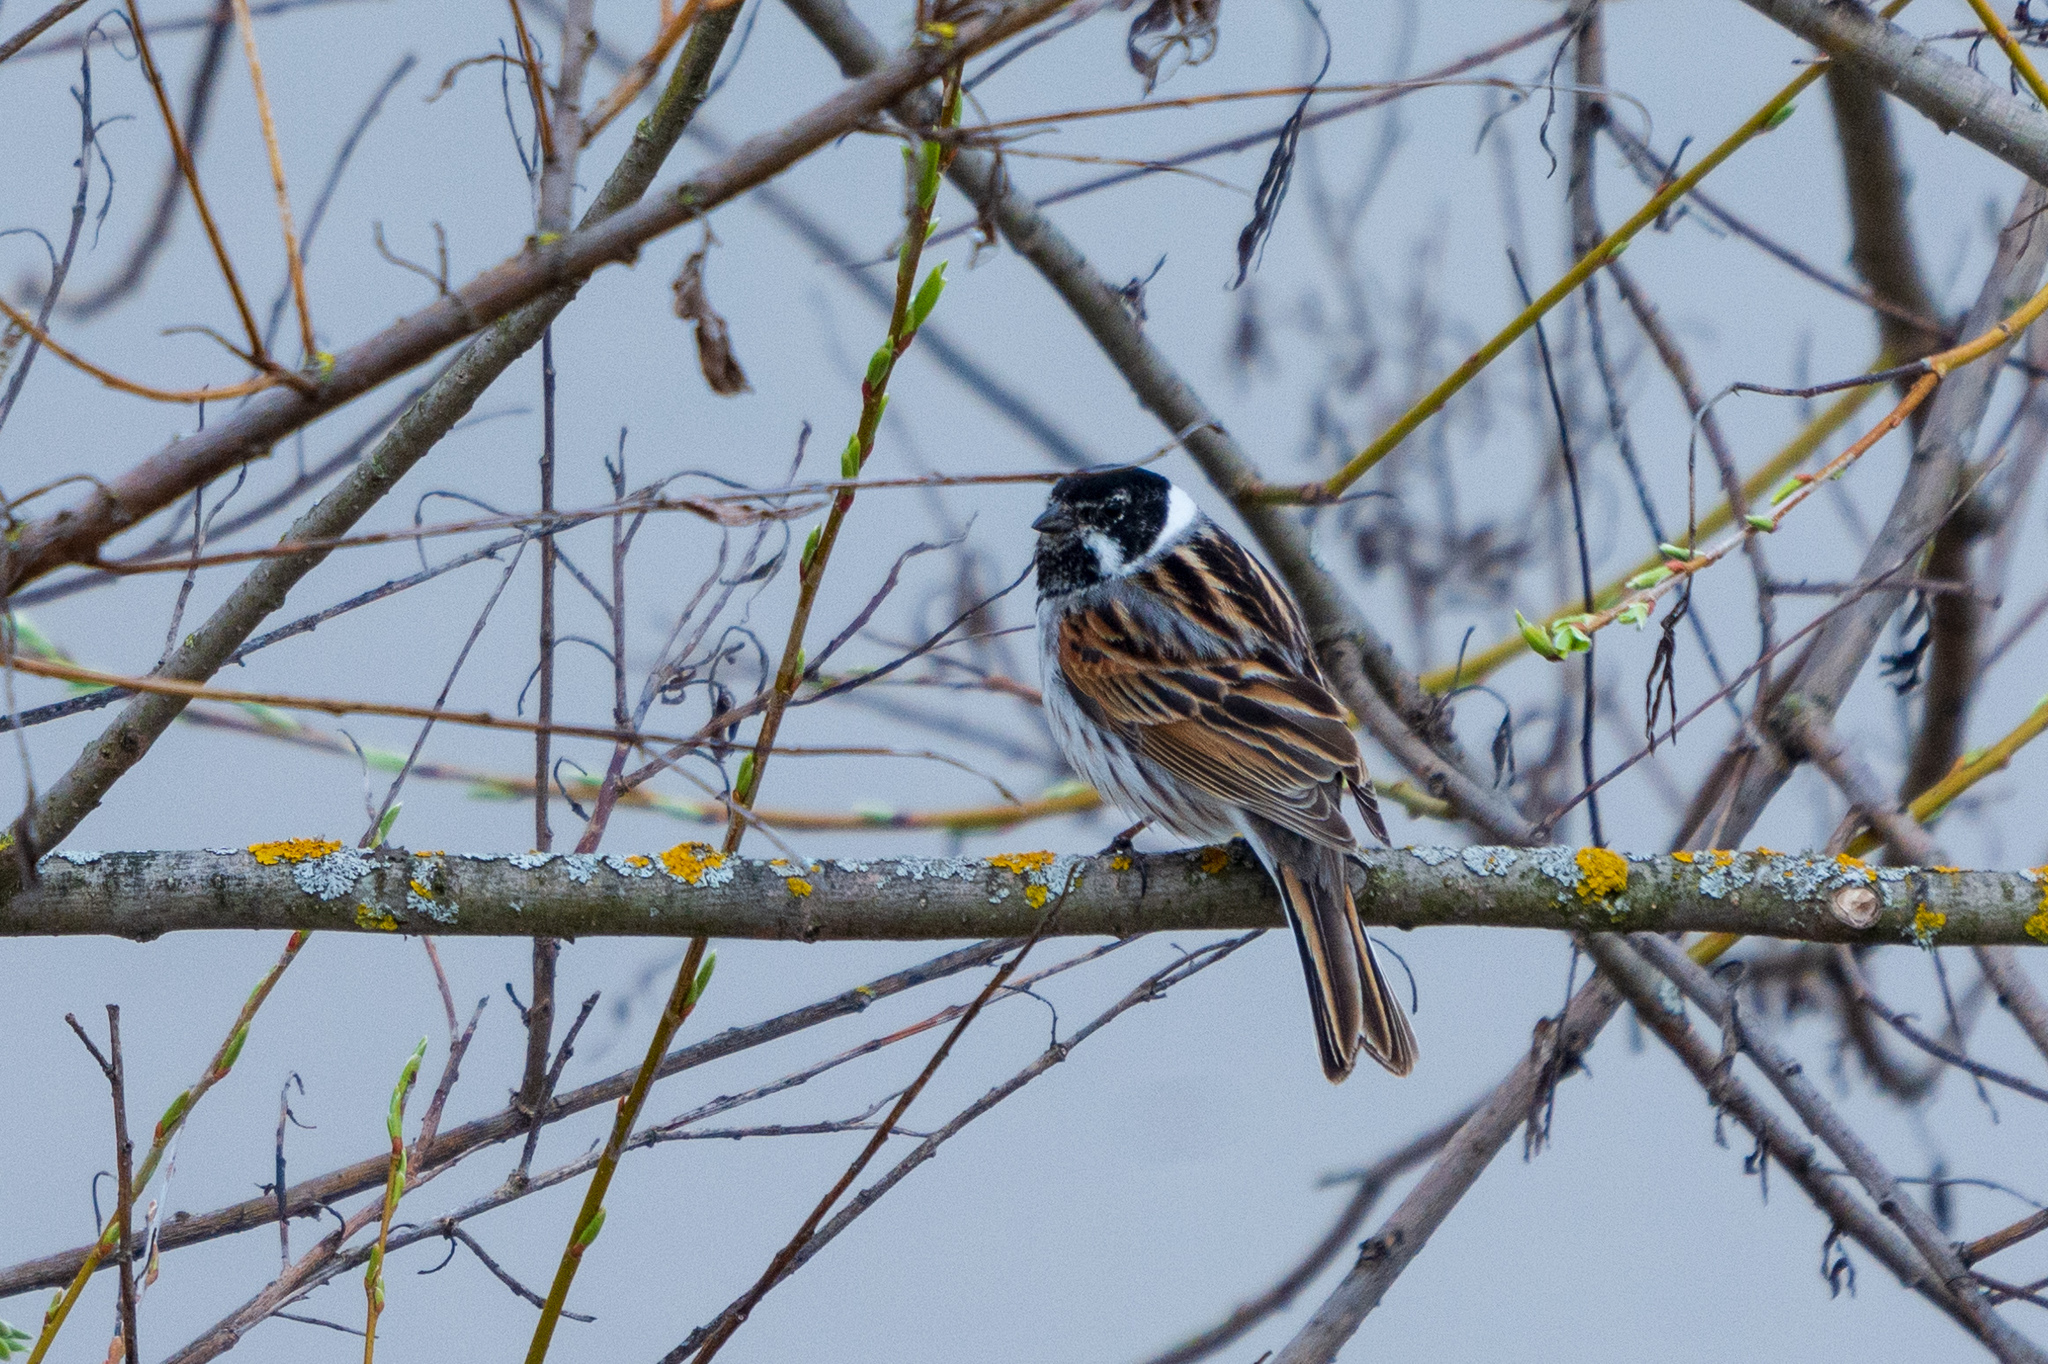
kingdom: Animalia
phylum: Chordata
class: Aves
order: Passeriformes
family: Emberizidae
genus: Emberiza
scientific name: Emberiza schoeniclus
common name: Reed bunting
